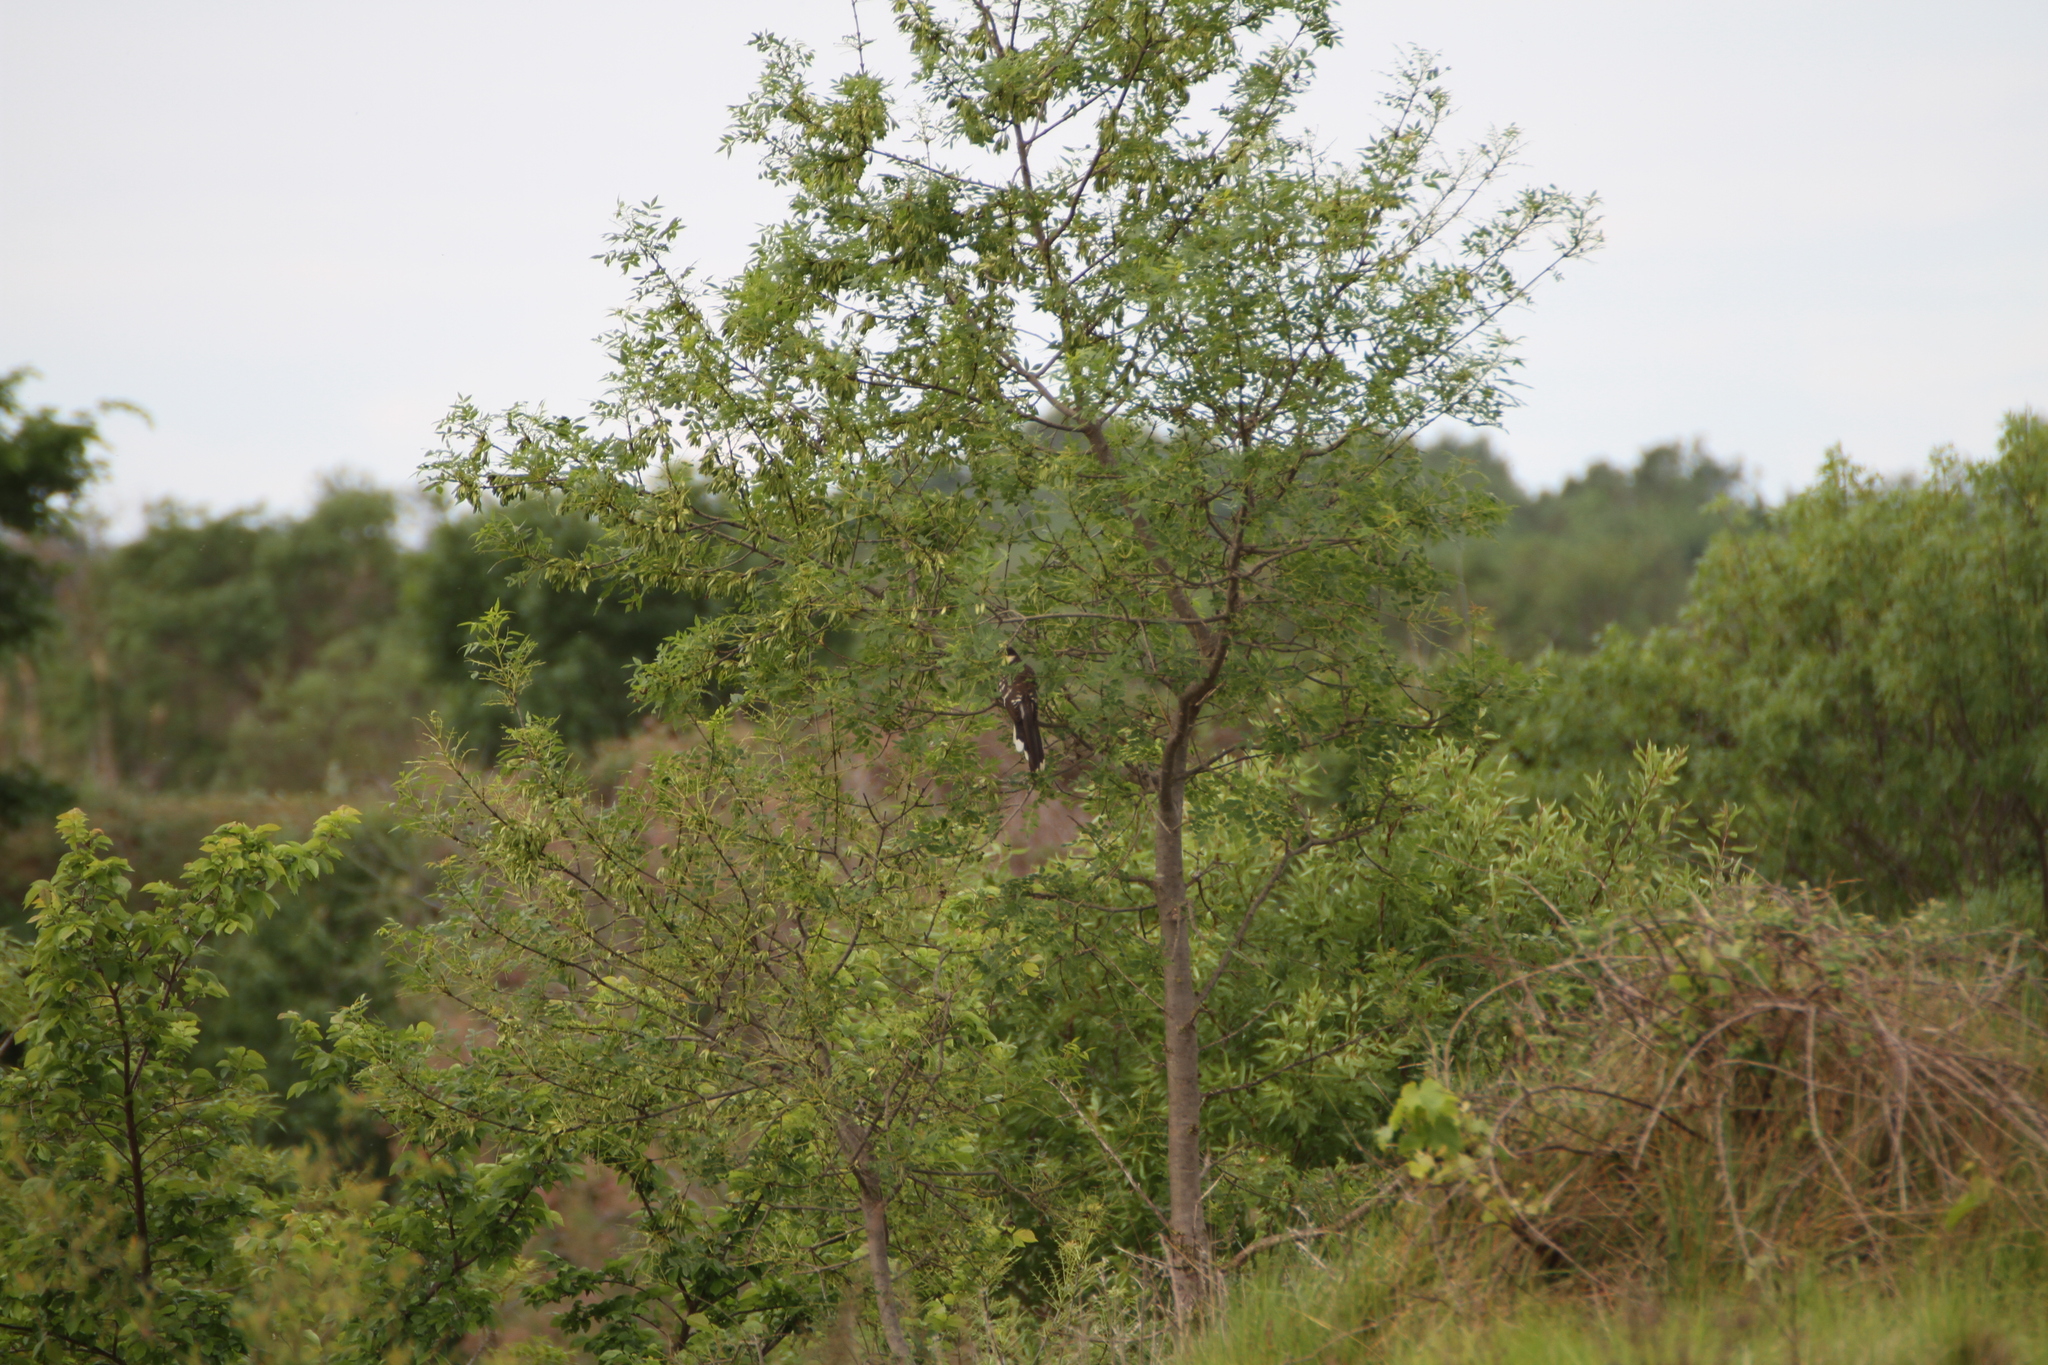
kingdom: Animalia
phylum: Chordata
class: Aves
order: Cuculiformes
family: Cuculidae
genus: Clamator
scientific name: Clamator glandarius
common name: Great spotted cuckoo
